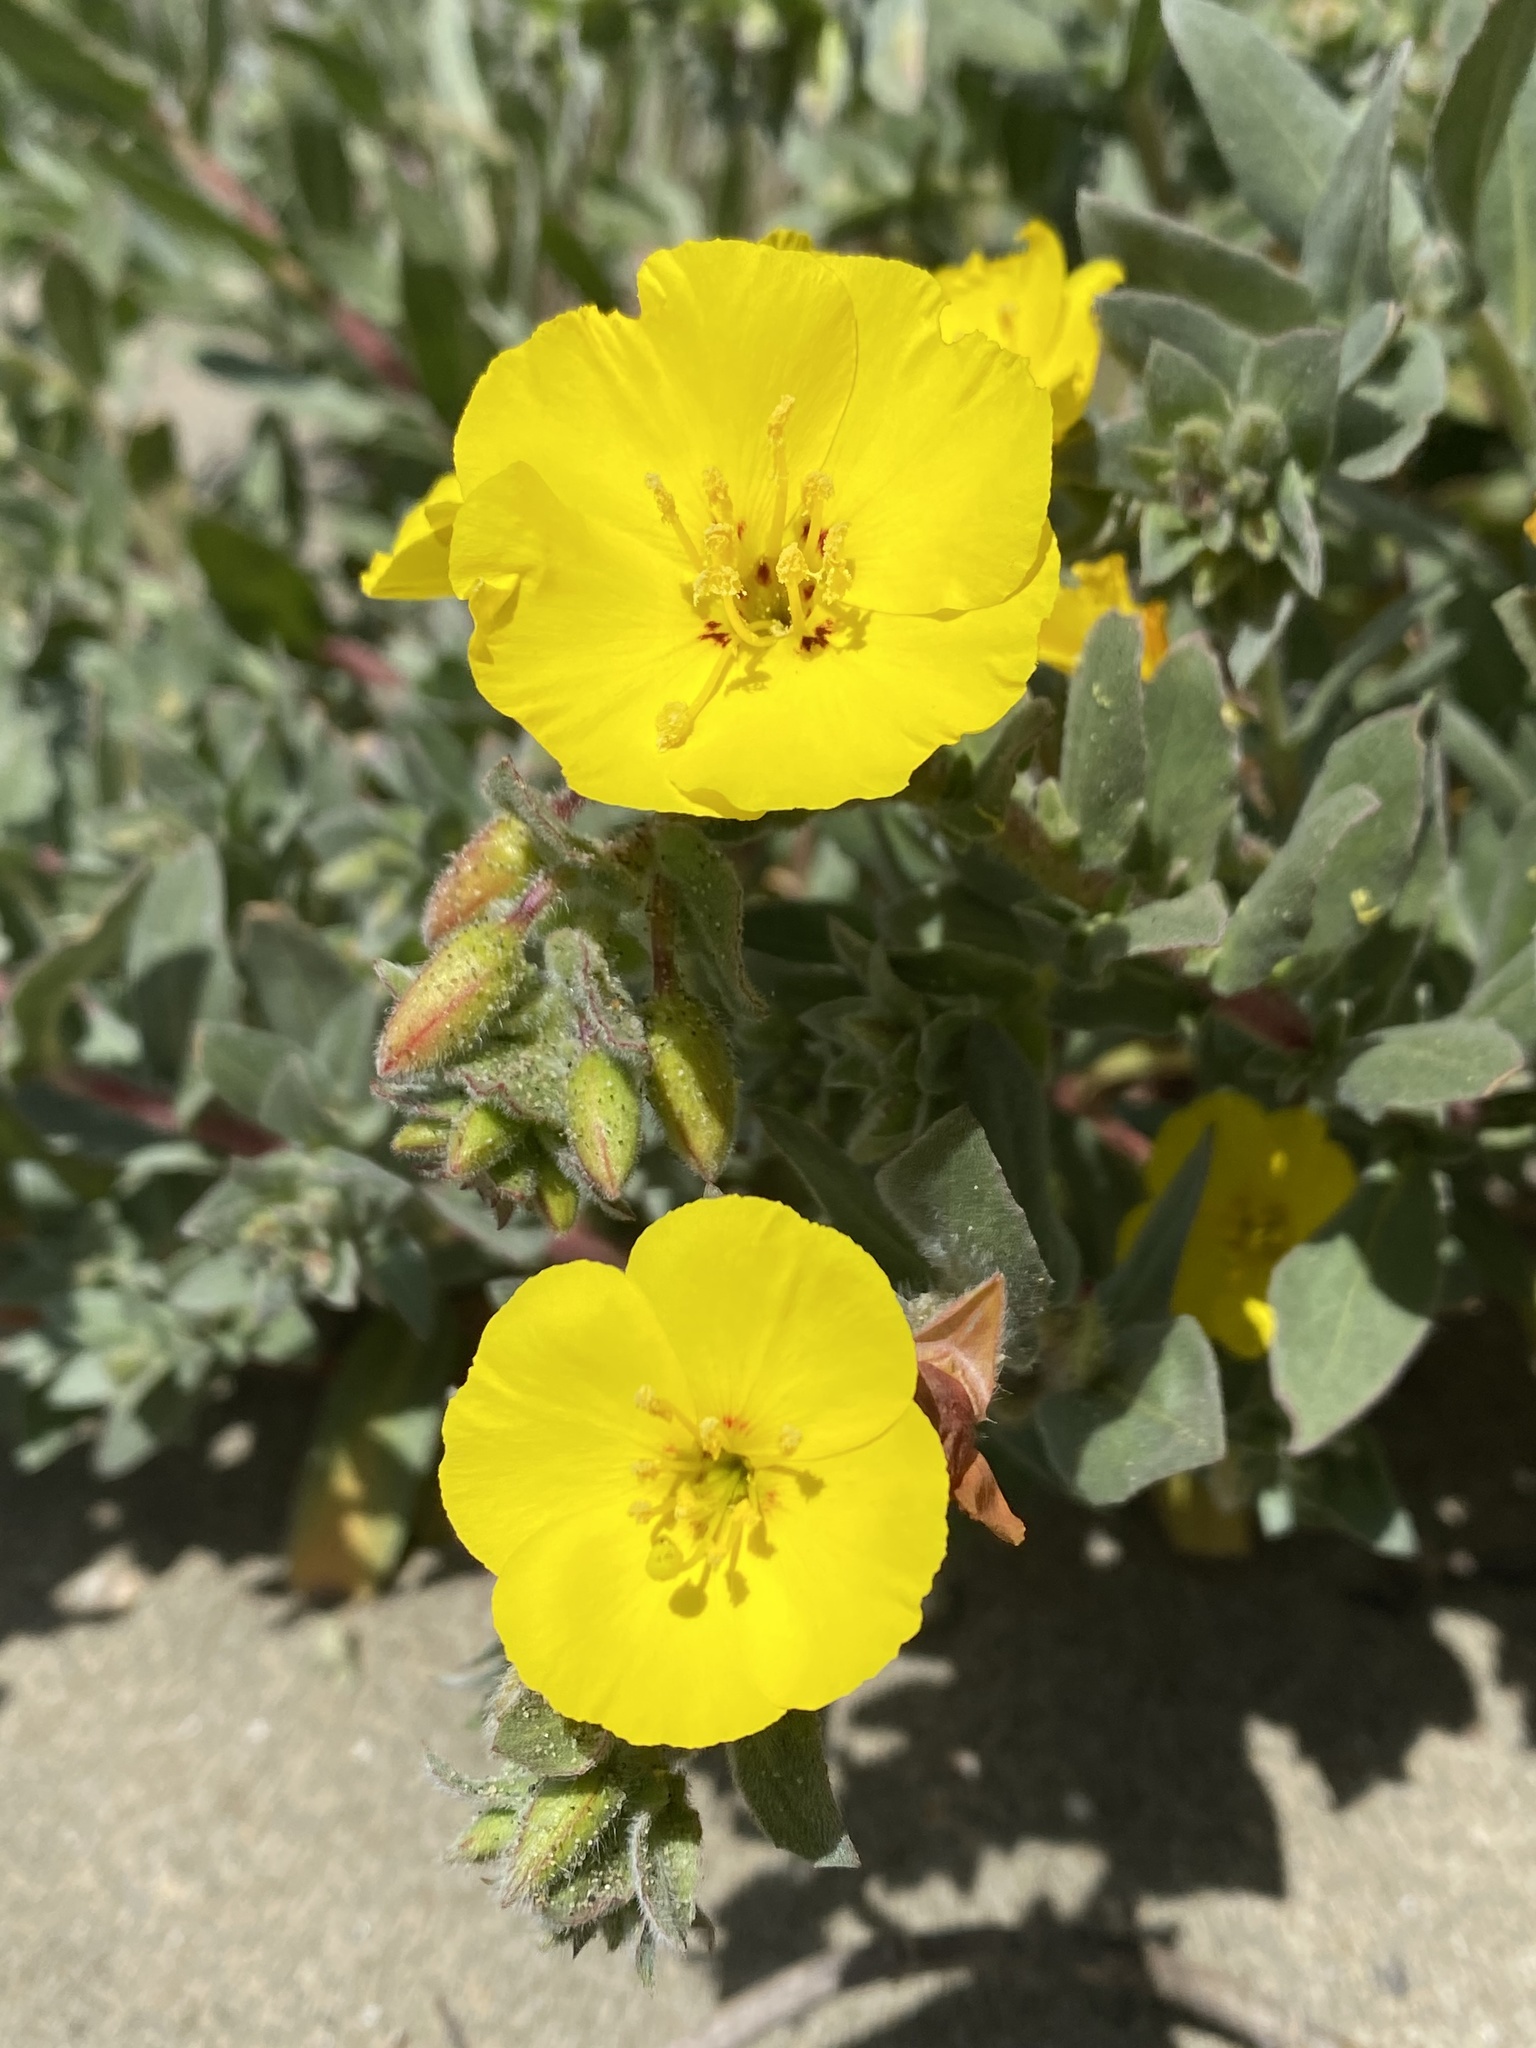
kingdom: Plantae
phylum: Tracheophyta
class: Magnoliopsida
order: Myrtales
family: Onagraceae
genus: Camissoniopsis
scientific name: Camissoniopsis cheiranthifolia
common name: Beach suncup
